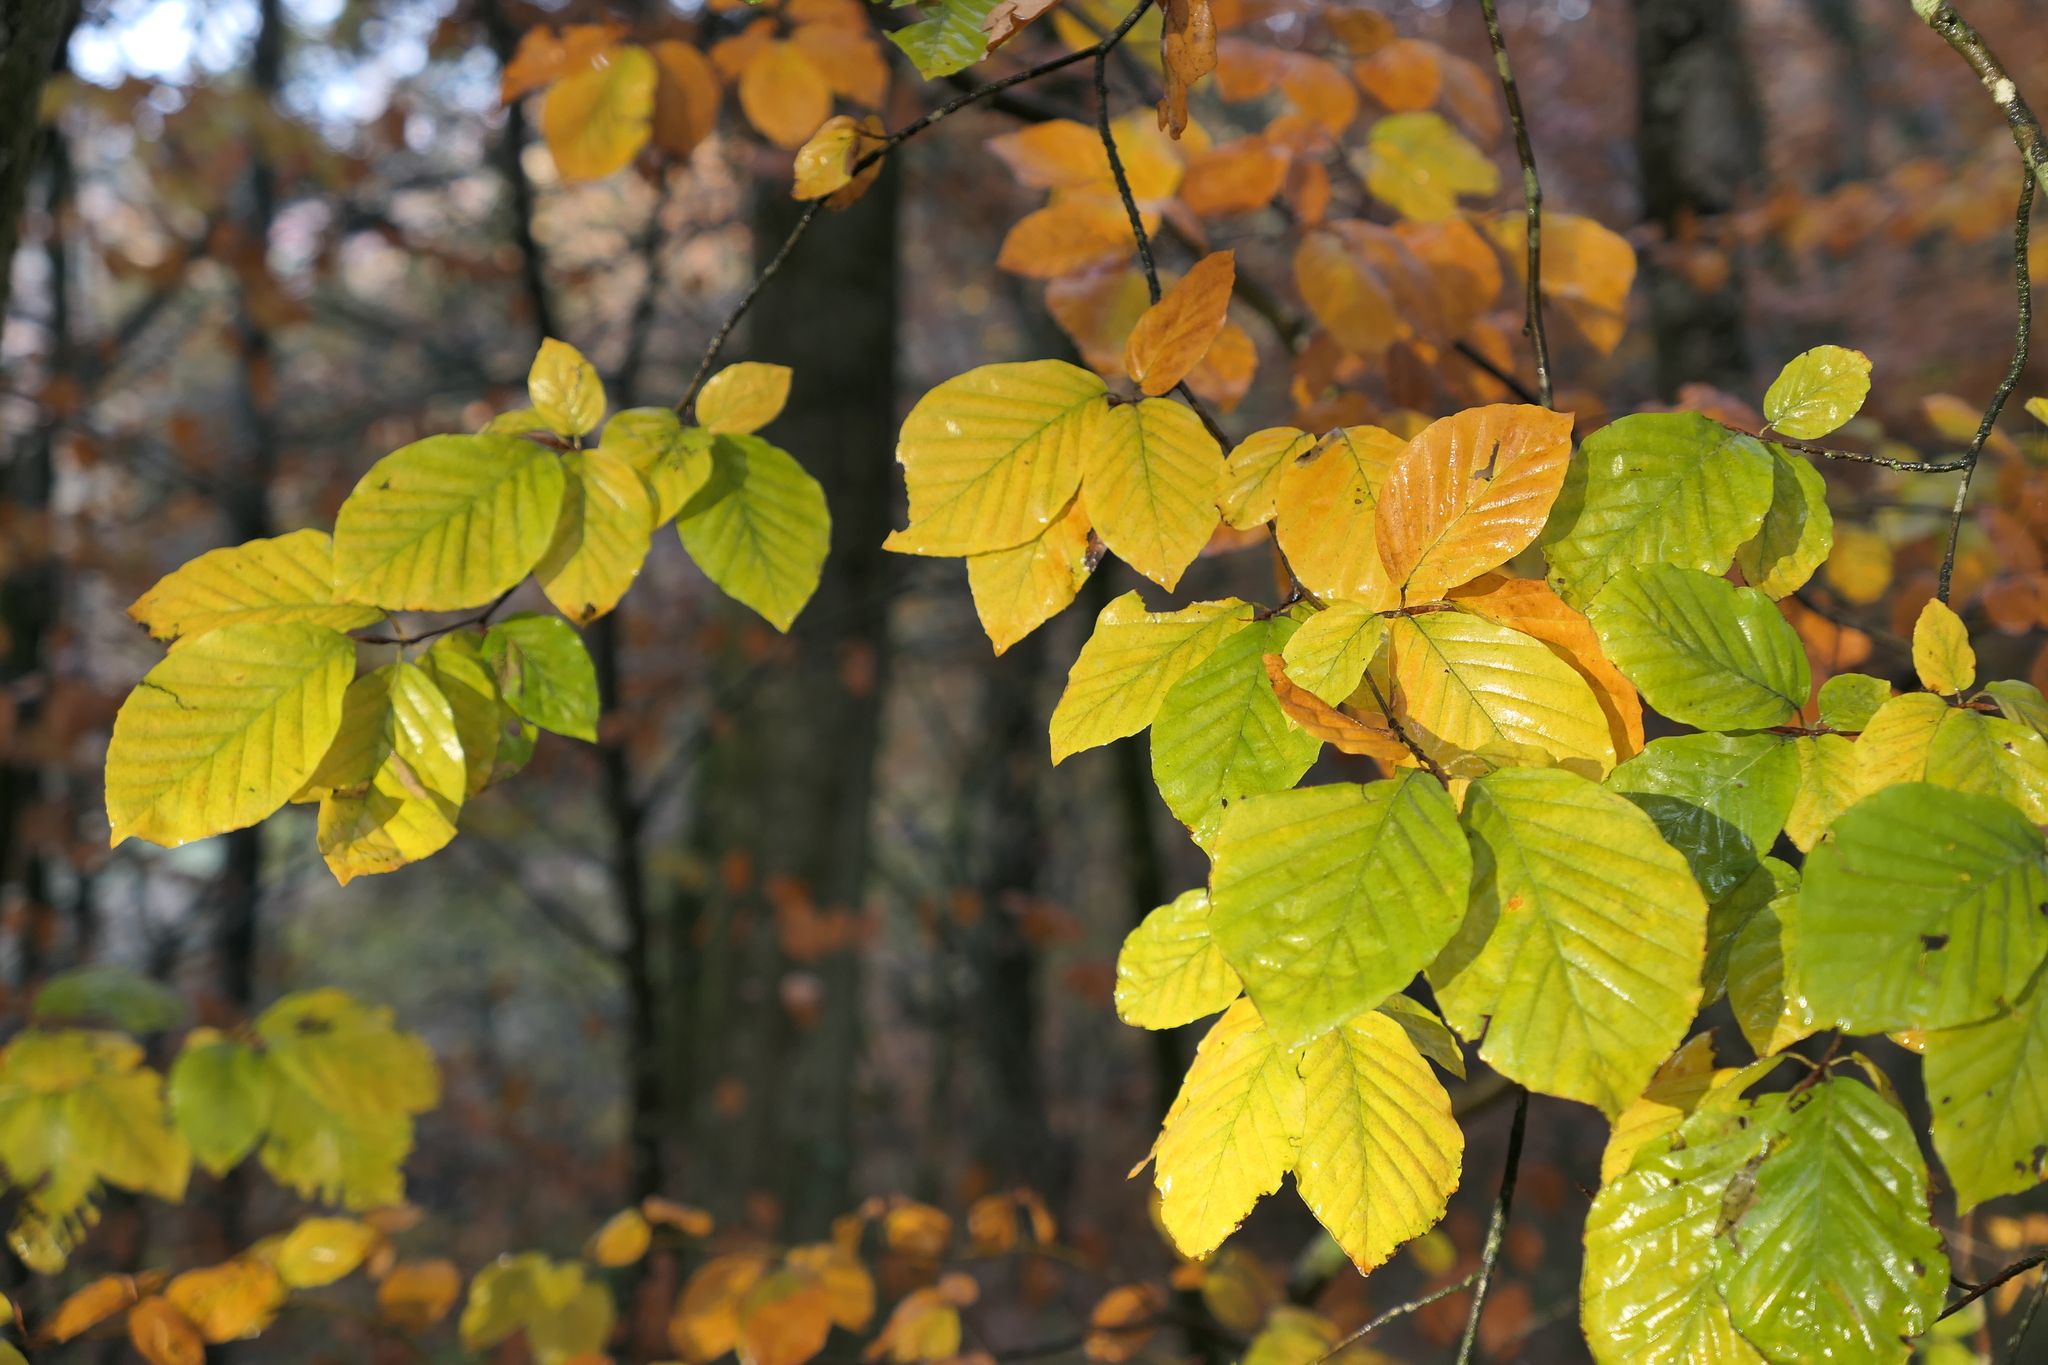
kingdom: Plantae
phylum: Tracheophyta
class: Magnoliopsida
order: Fagales
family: Fagaceae
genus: Fagus
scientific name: Fagus sylvatica
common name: Beech
